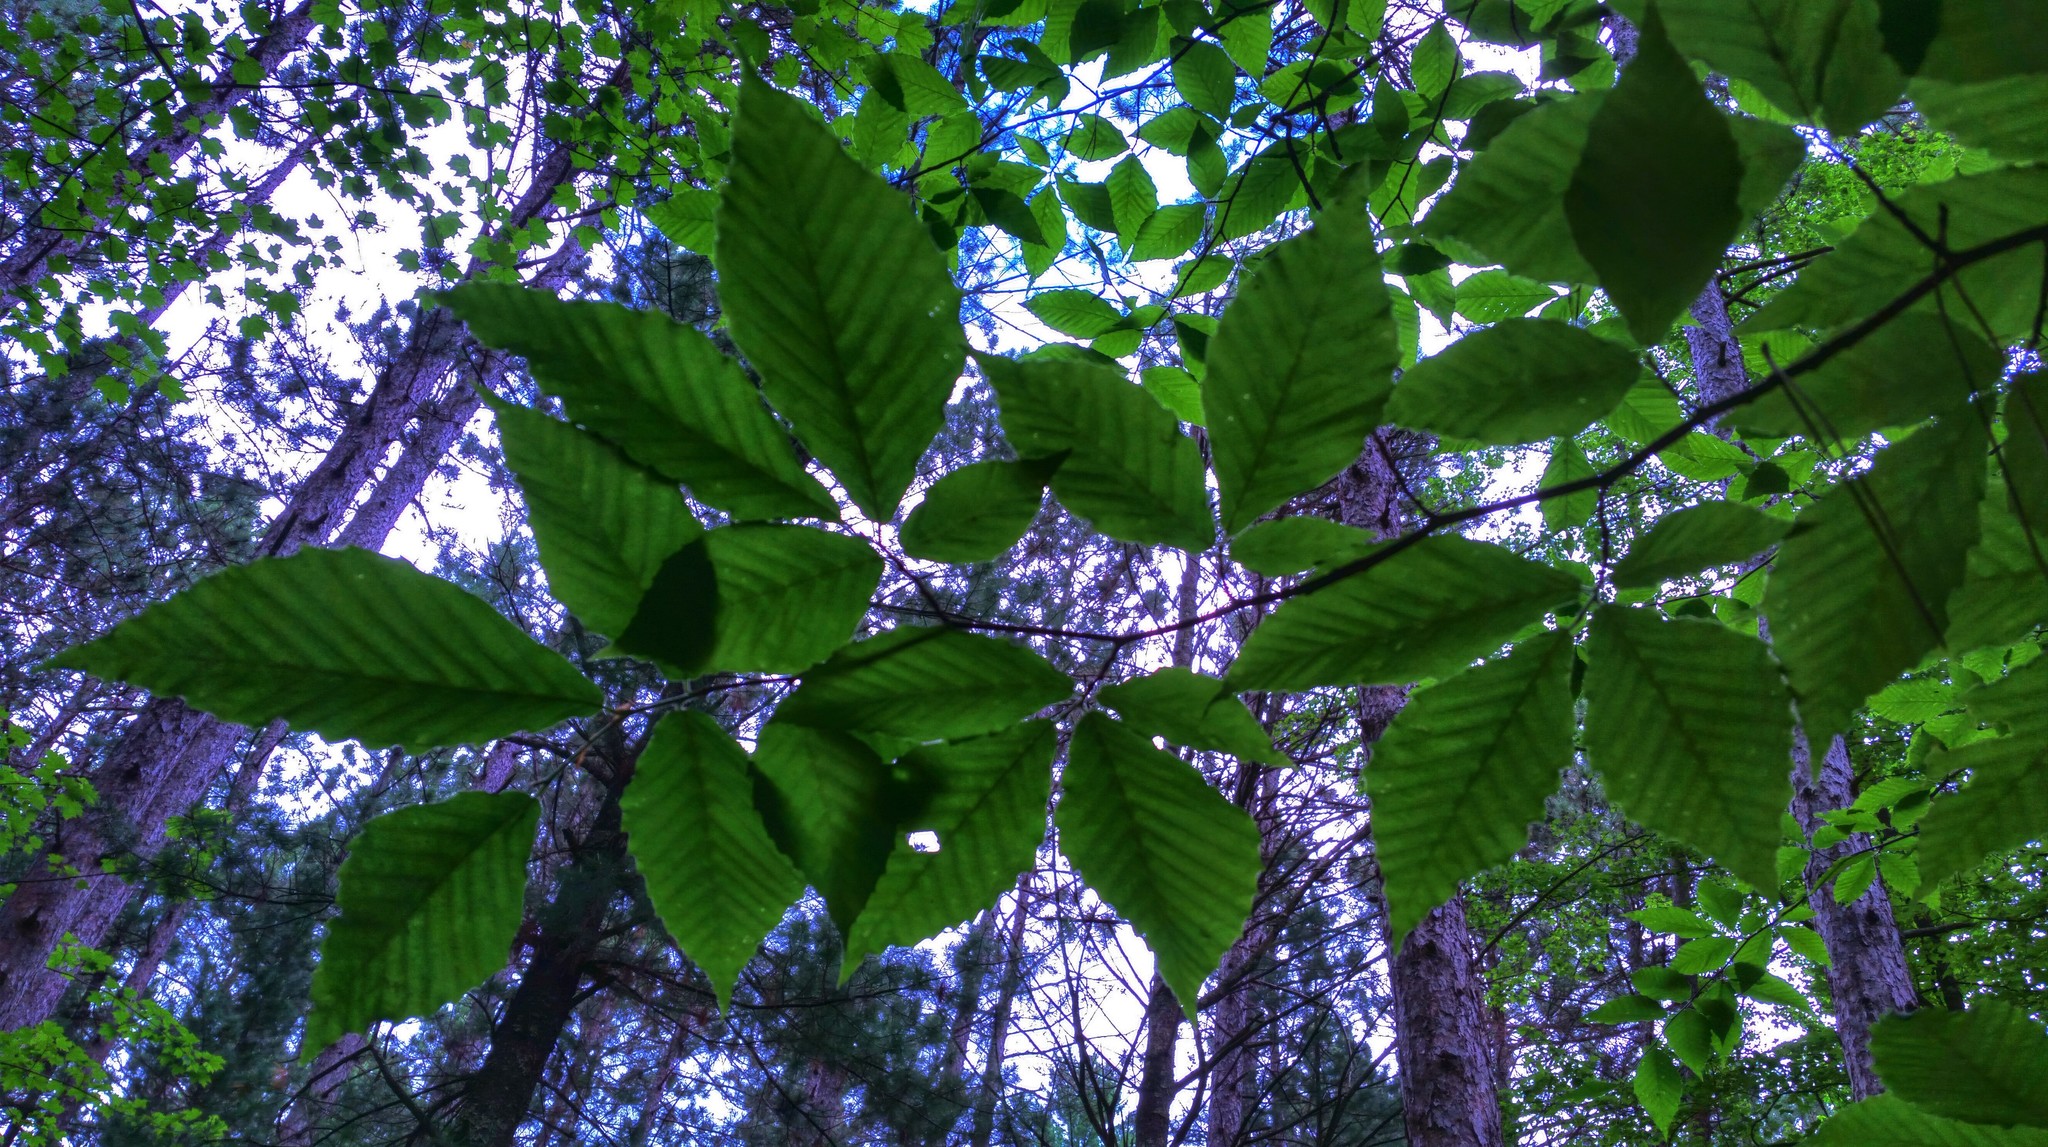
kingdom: Plantae
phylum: Tracheophyta
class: Magnoliopsida
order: Fagales
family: Fagaceae
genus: Fagus
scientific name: Fagus grandifolia
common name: American beech
